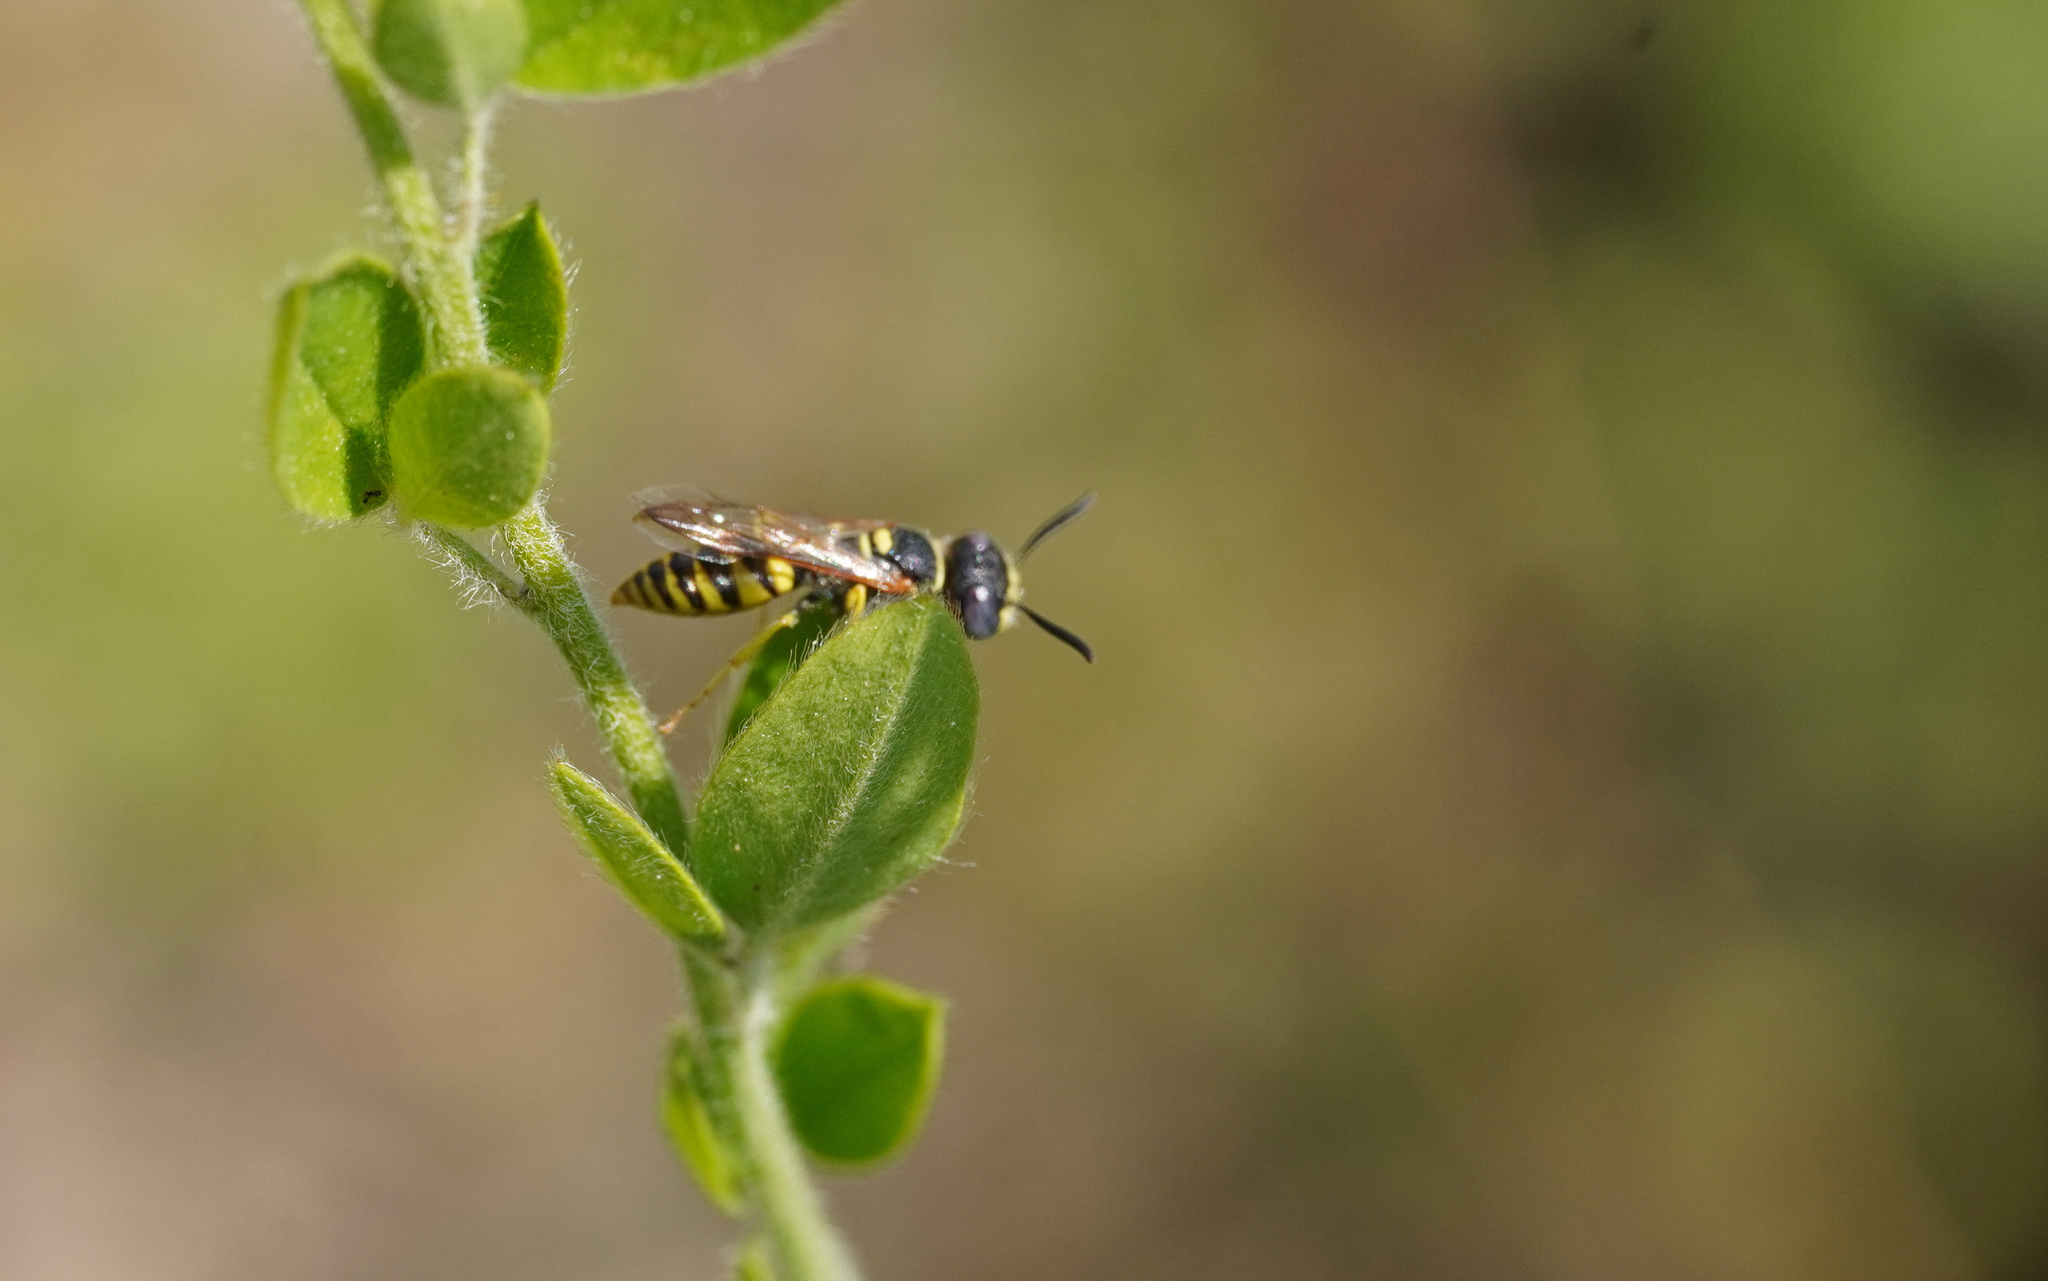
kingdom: Animalia
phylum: Arthropoda
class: Insecta
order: Hymenoptera
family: Crabronidae
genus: Philanthus
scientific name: Philanthus triangulum
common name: Bee wolf
